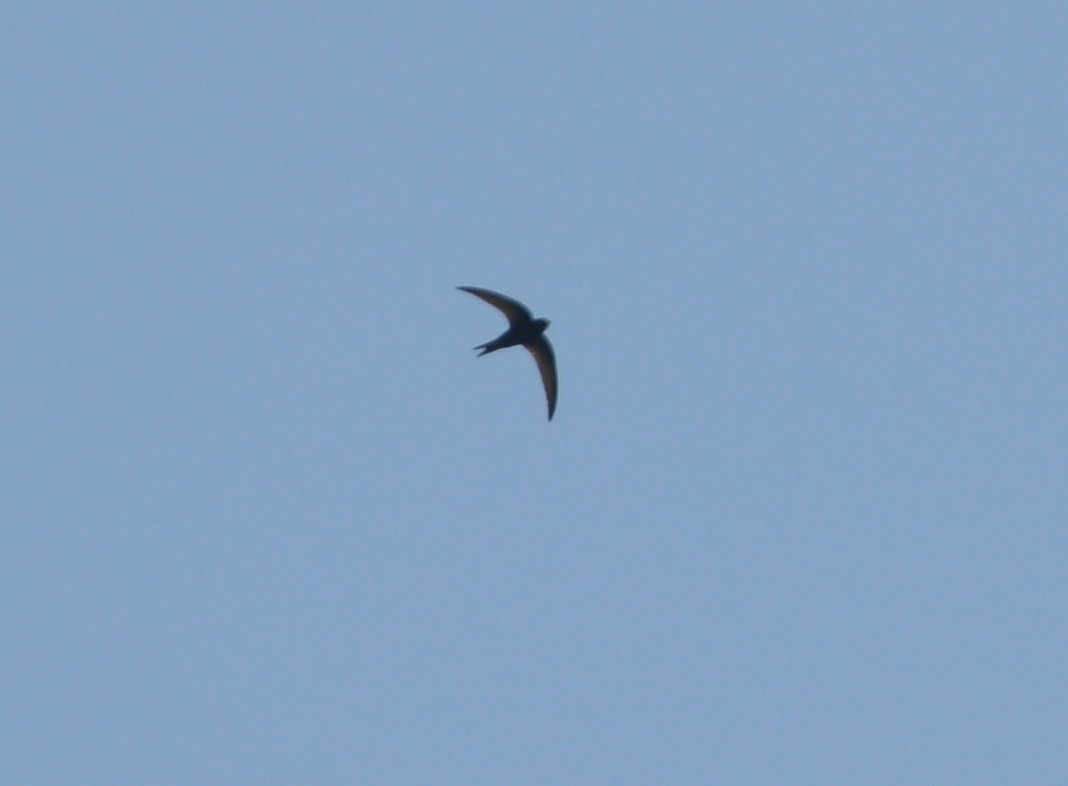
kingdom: Animalia
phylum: Chordata
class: Aves
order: Apodiformes
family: Apodidae
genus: Apus
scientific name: Apus apus
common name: Common swift
